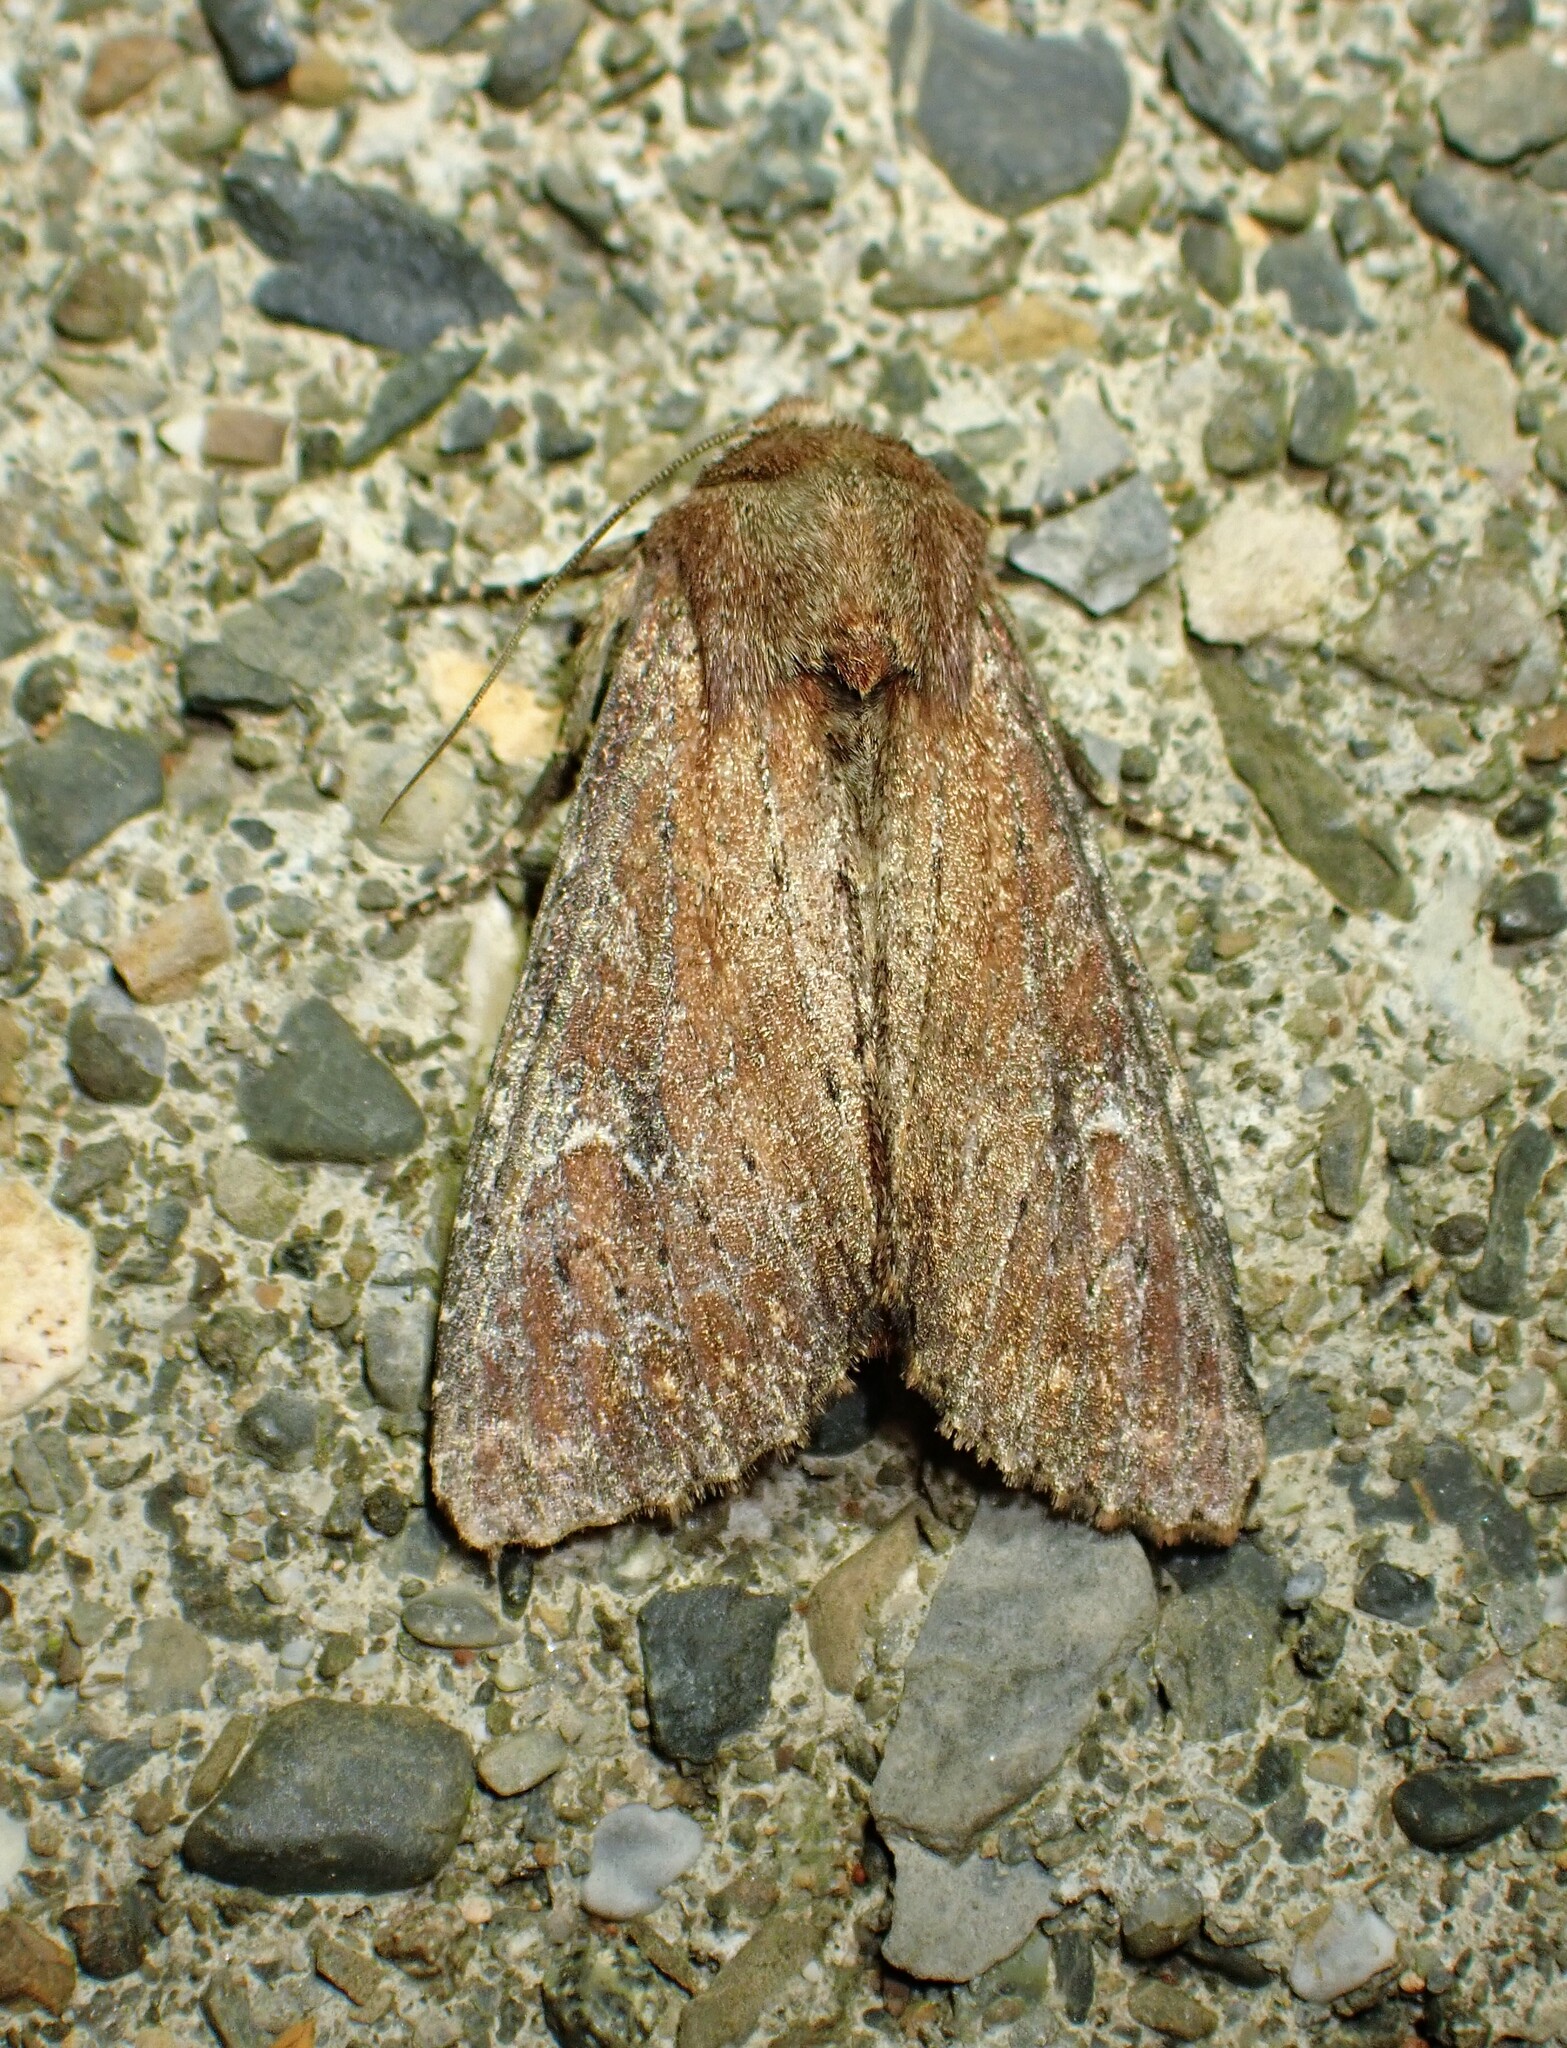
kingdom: Animalia
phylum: Arthropoda
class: Insecta
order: Lepidoptera
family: Noctuidae
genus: Apamea
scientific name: Apamea scoparia
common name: Faint-spotted quaker
